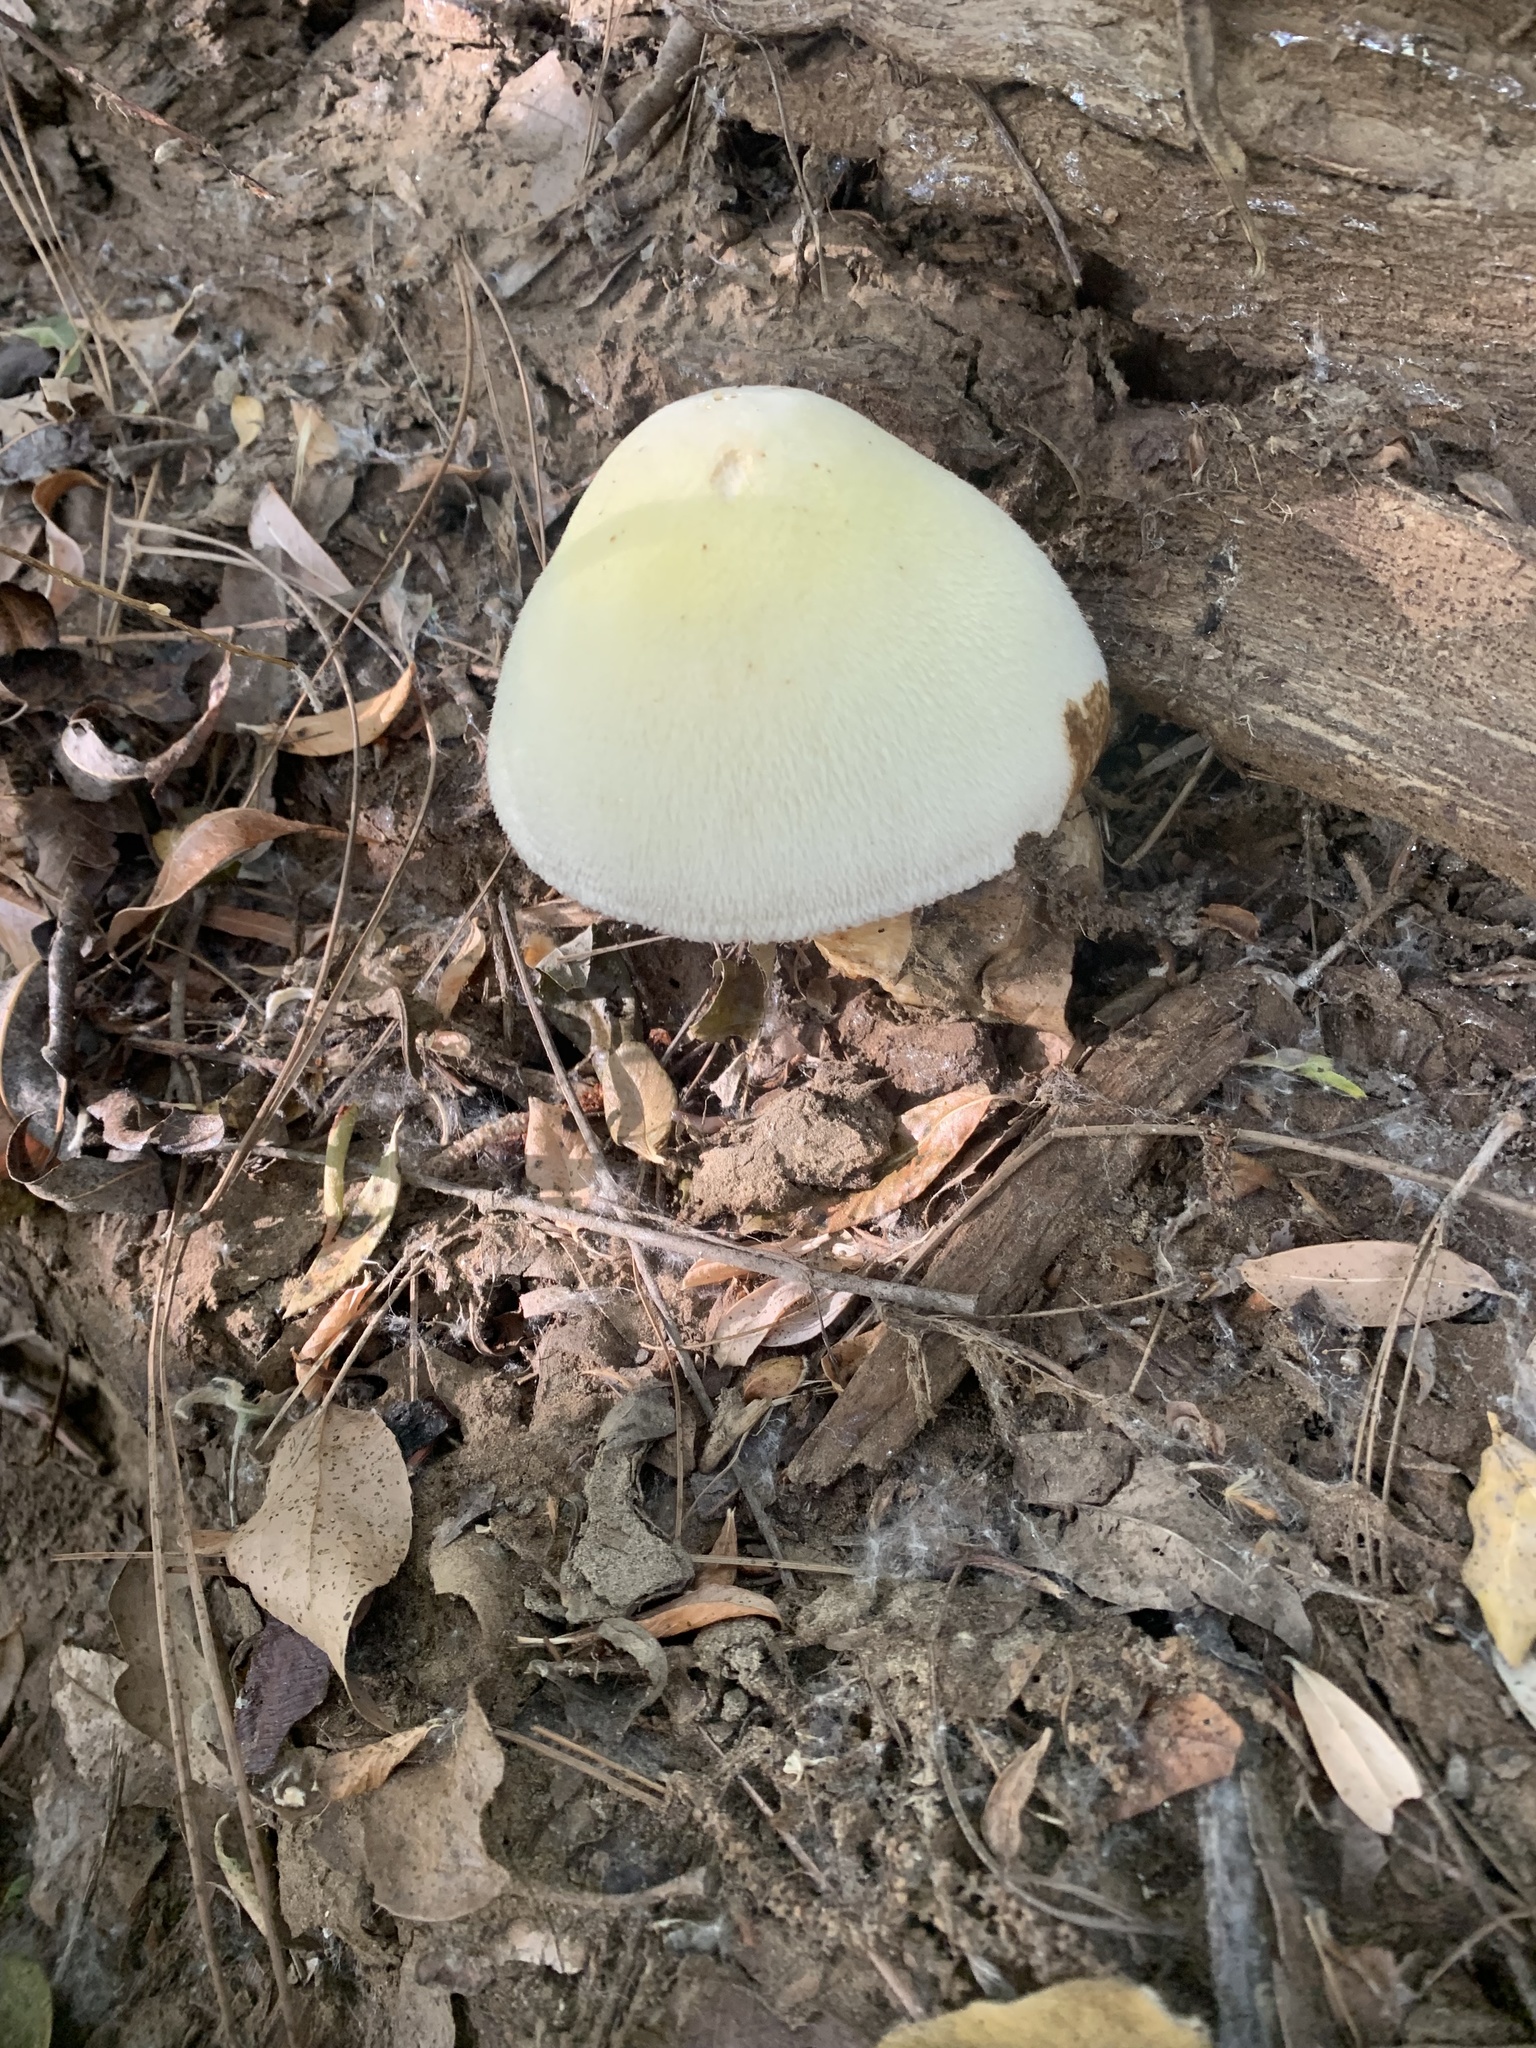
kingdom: Fungi
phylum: Basidiomycota
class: Agaricomycetes
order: Agaricales
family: Pluteaceae
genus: Volvariella
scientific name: Volvariella bombycina
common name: Silky rosegill
